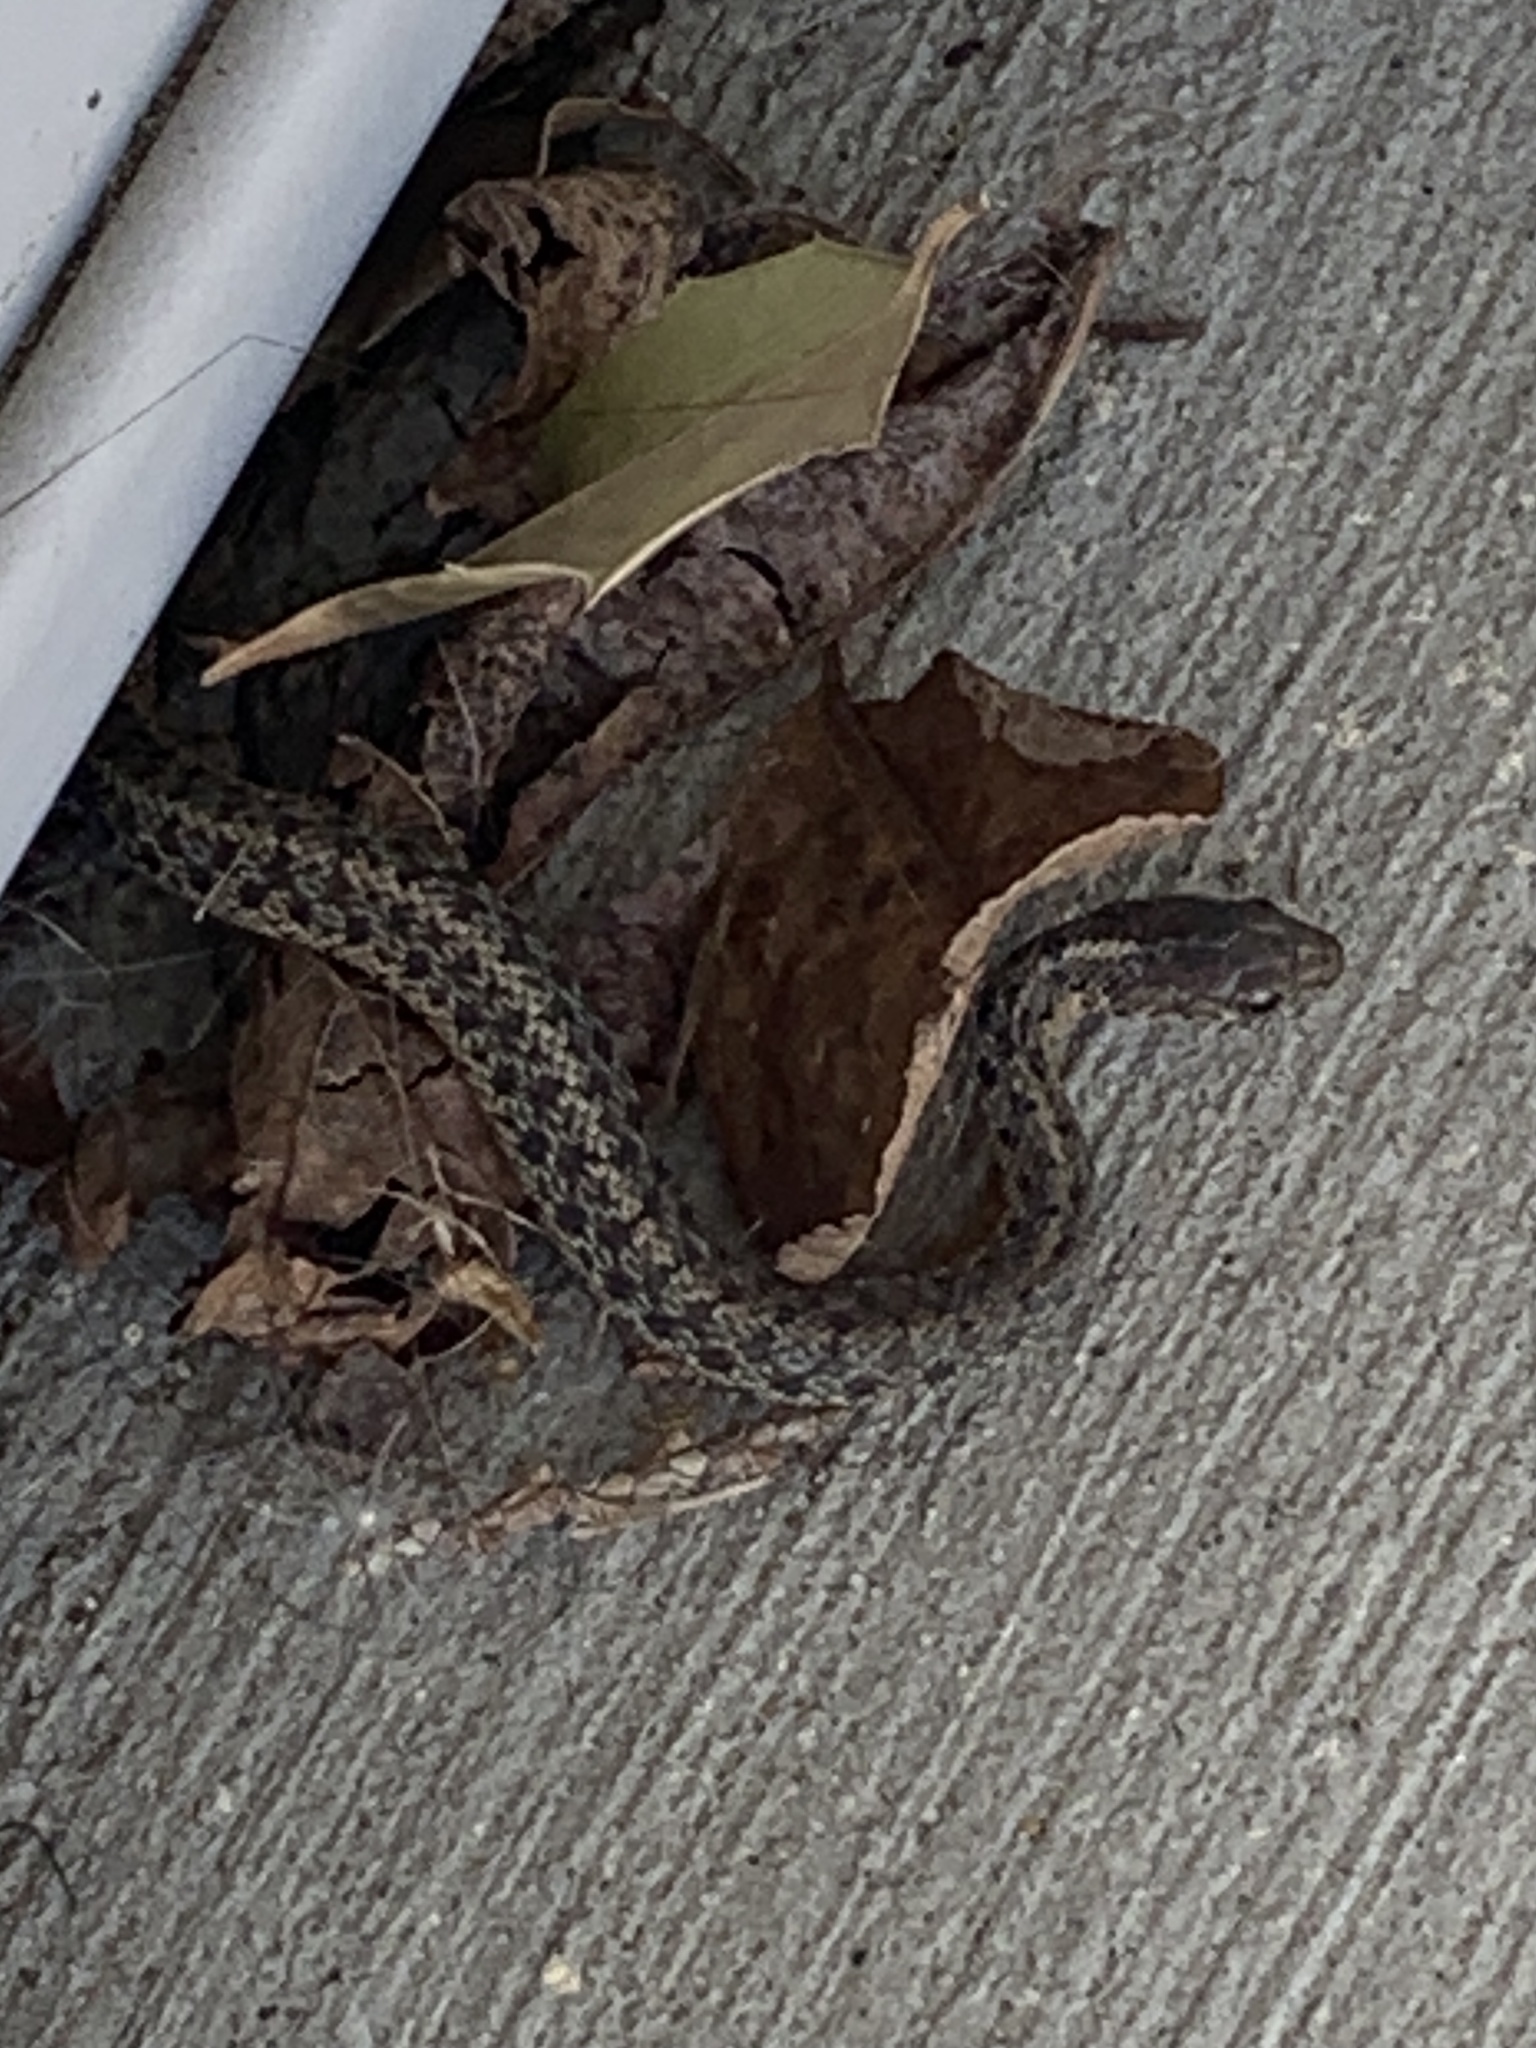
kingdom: Animalia
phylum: Chordata
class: Squamata
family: Colubridae
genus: Thamnophis
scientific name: Thamnophis sirtalis
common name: Common garter snake
